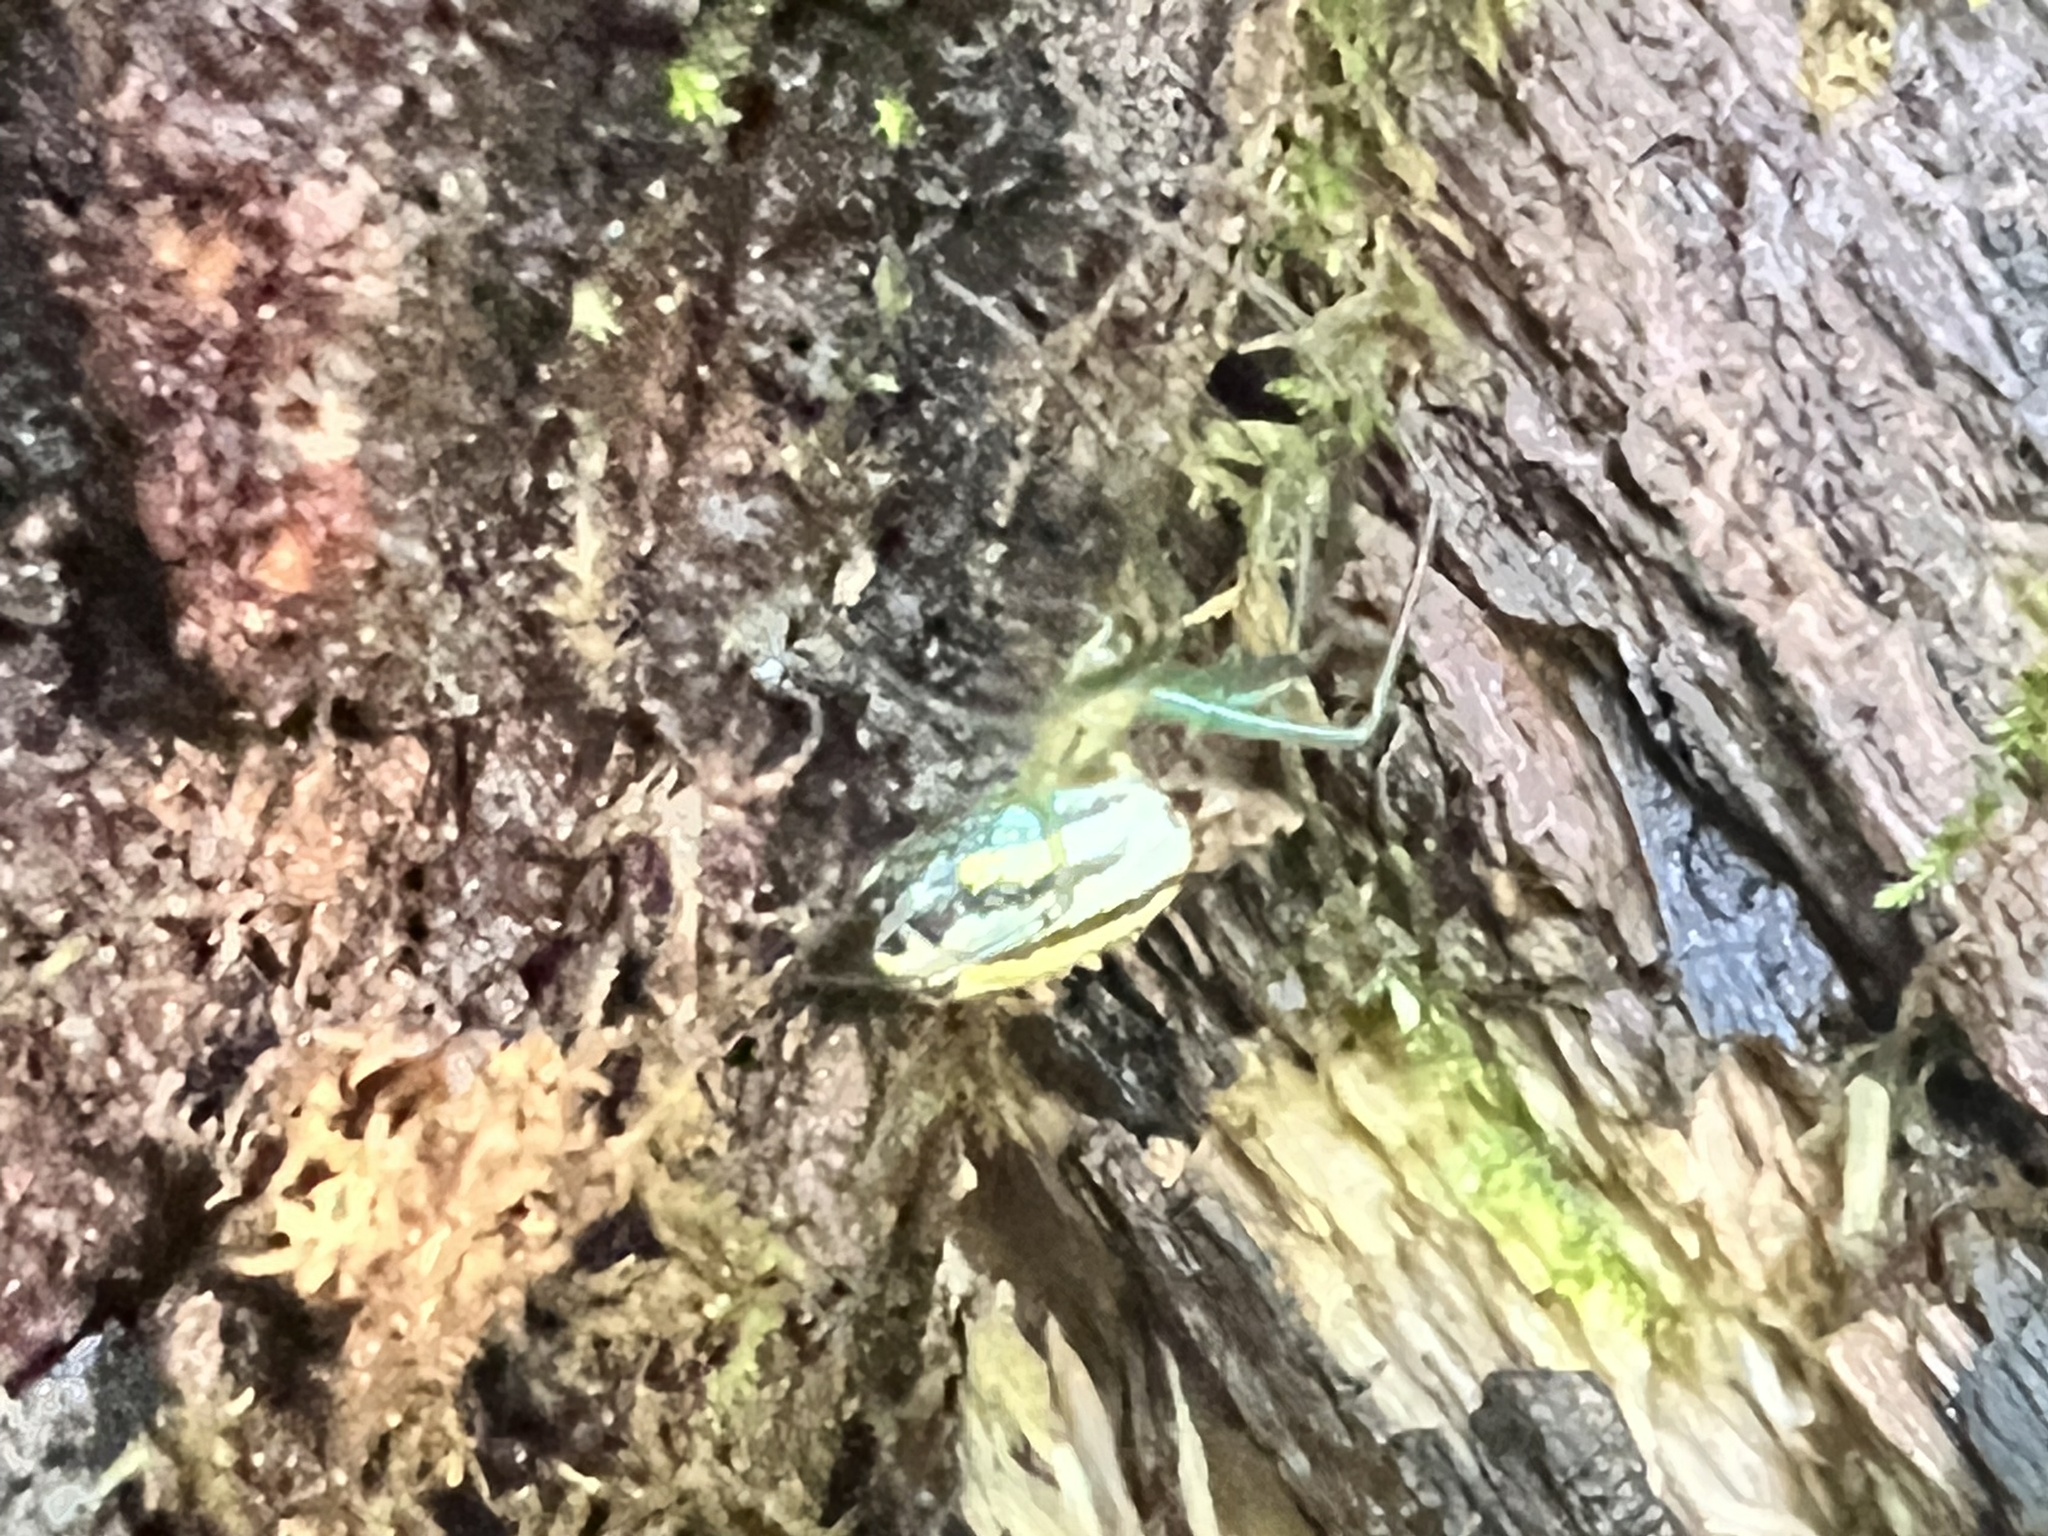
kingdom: Animalia
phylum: Arthropoda
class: Arachnida
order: Araneae
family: Tetragnathidae
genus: Leucauge
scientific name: Leucauge venusta
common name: Longjawed orb weavers
